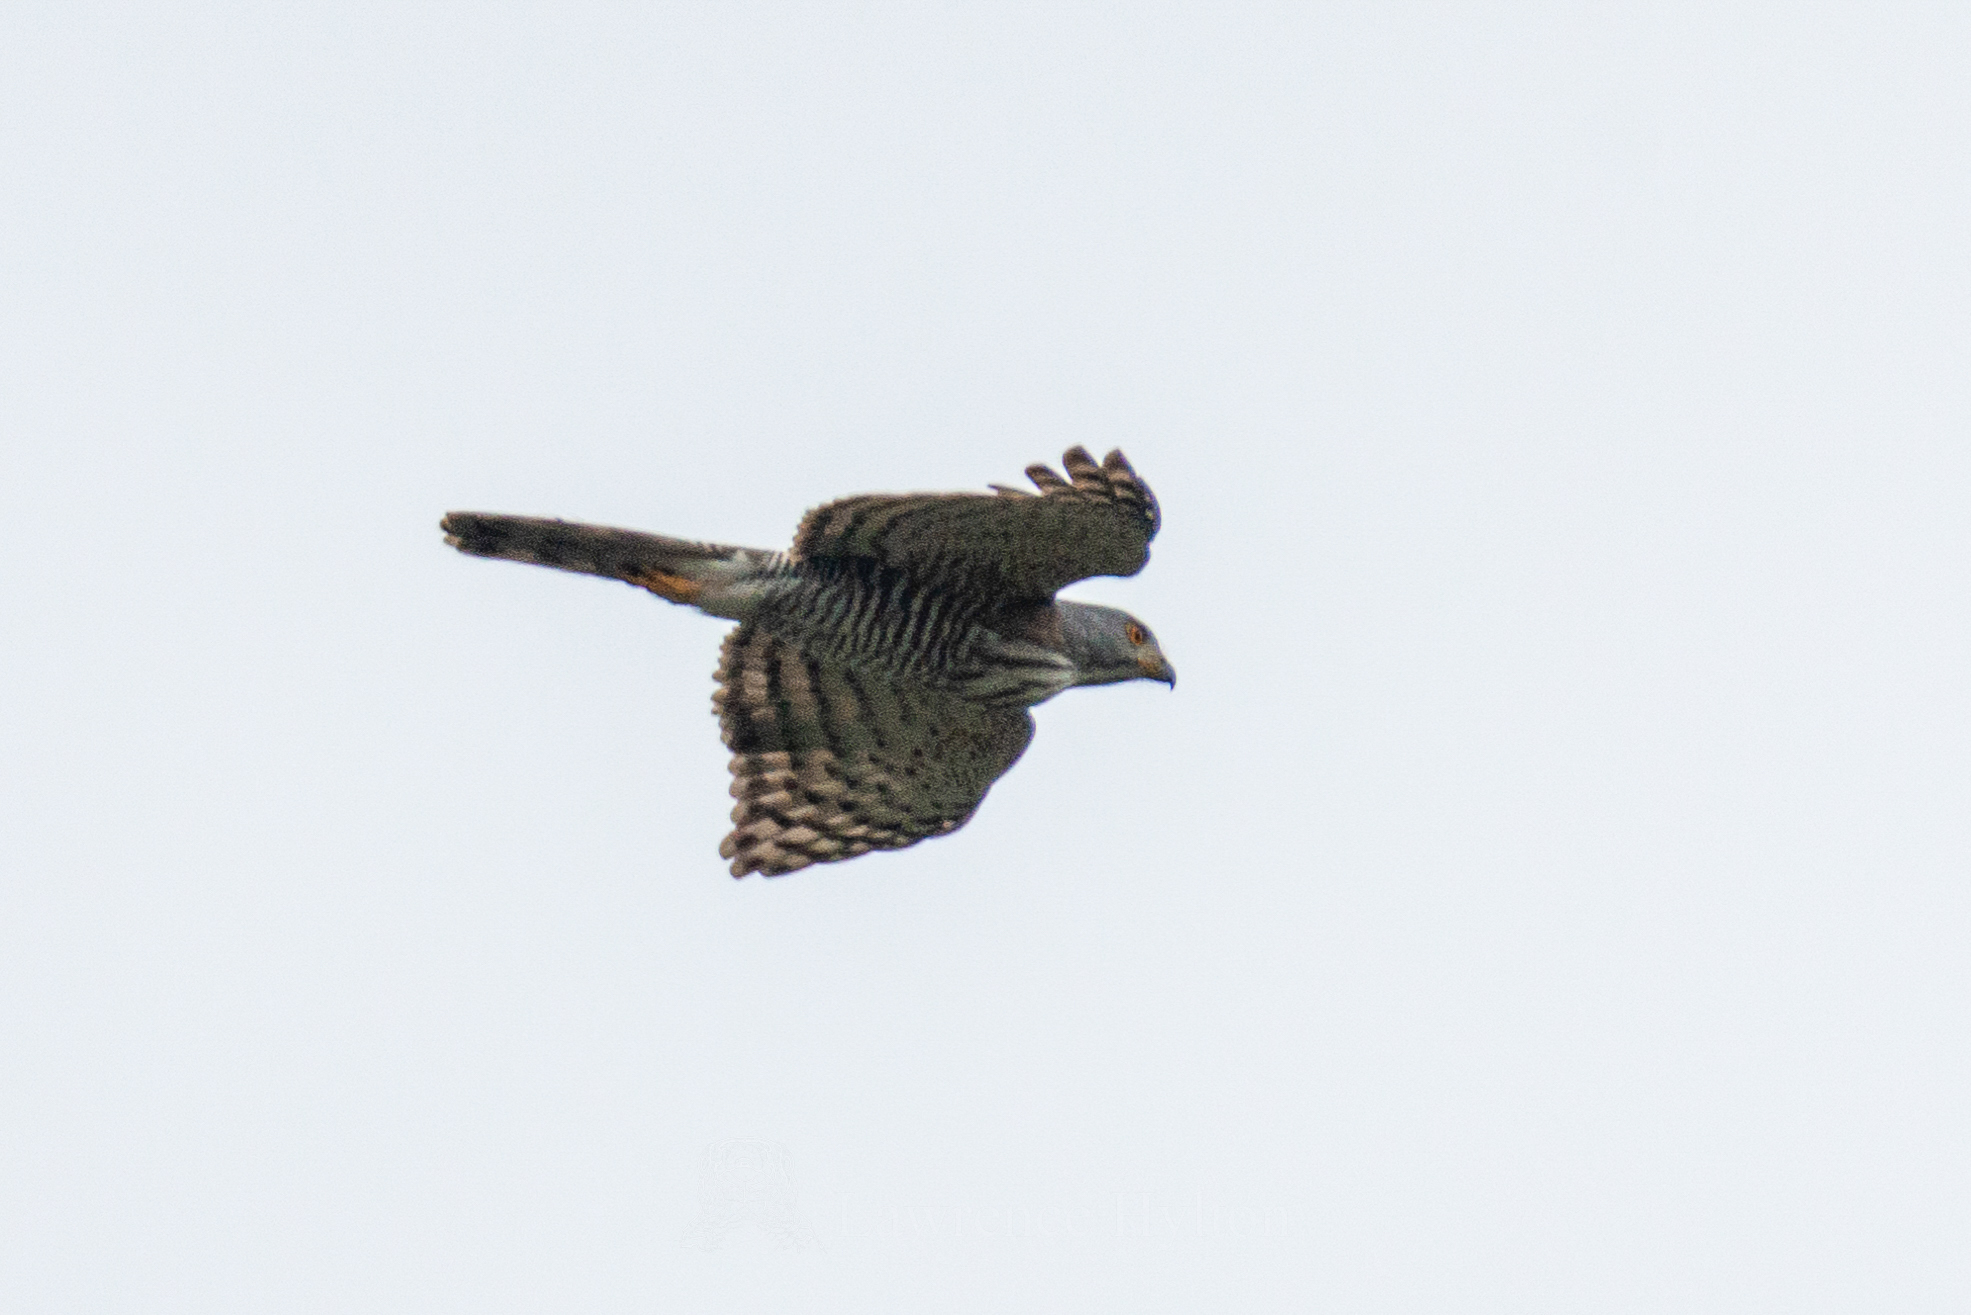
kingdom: Animalia
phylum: Chordata
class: Aves
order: Accipitriformes
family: Accipitridae
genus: Accipiter
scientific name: Accipiter trivirgatus
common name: Crested goshawk
